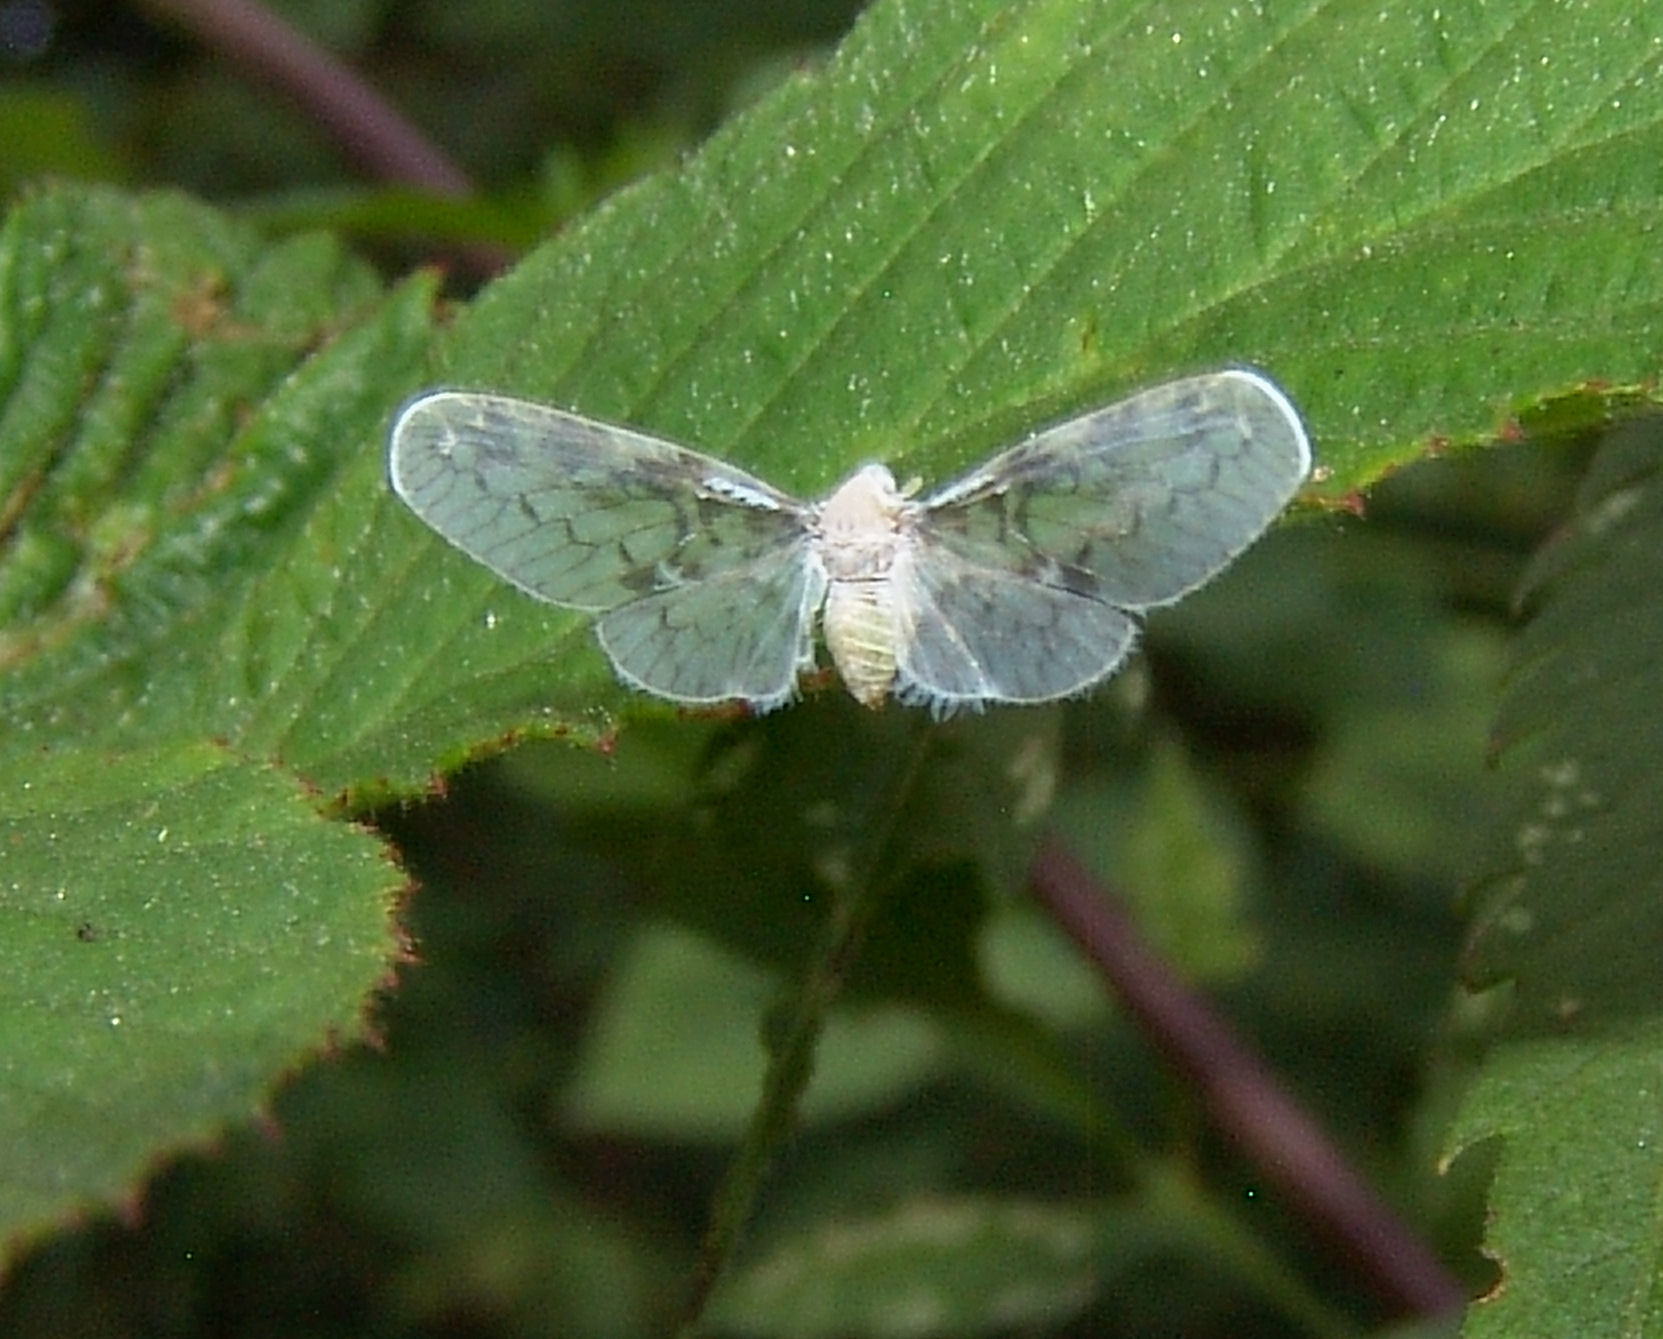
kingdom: Animalia
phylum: Arthropoda
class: Insecta
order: Hemiptera
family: Derbidae
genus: Paramysidia
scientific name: Paramysidia mississippiensis
